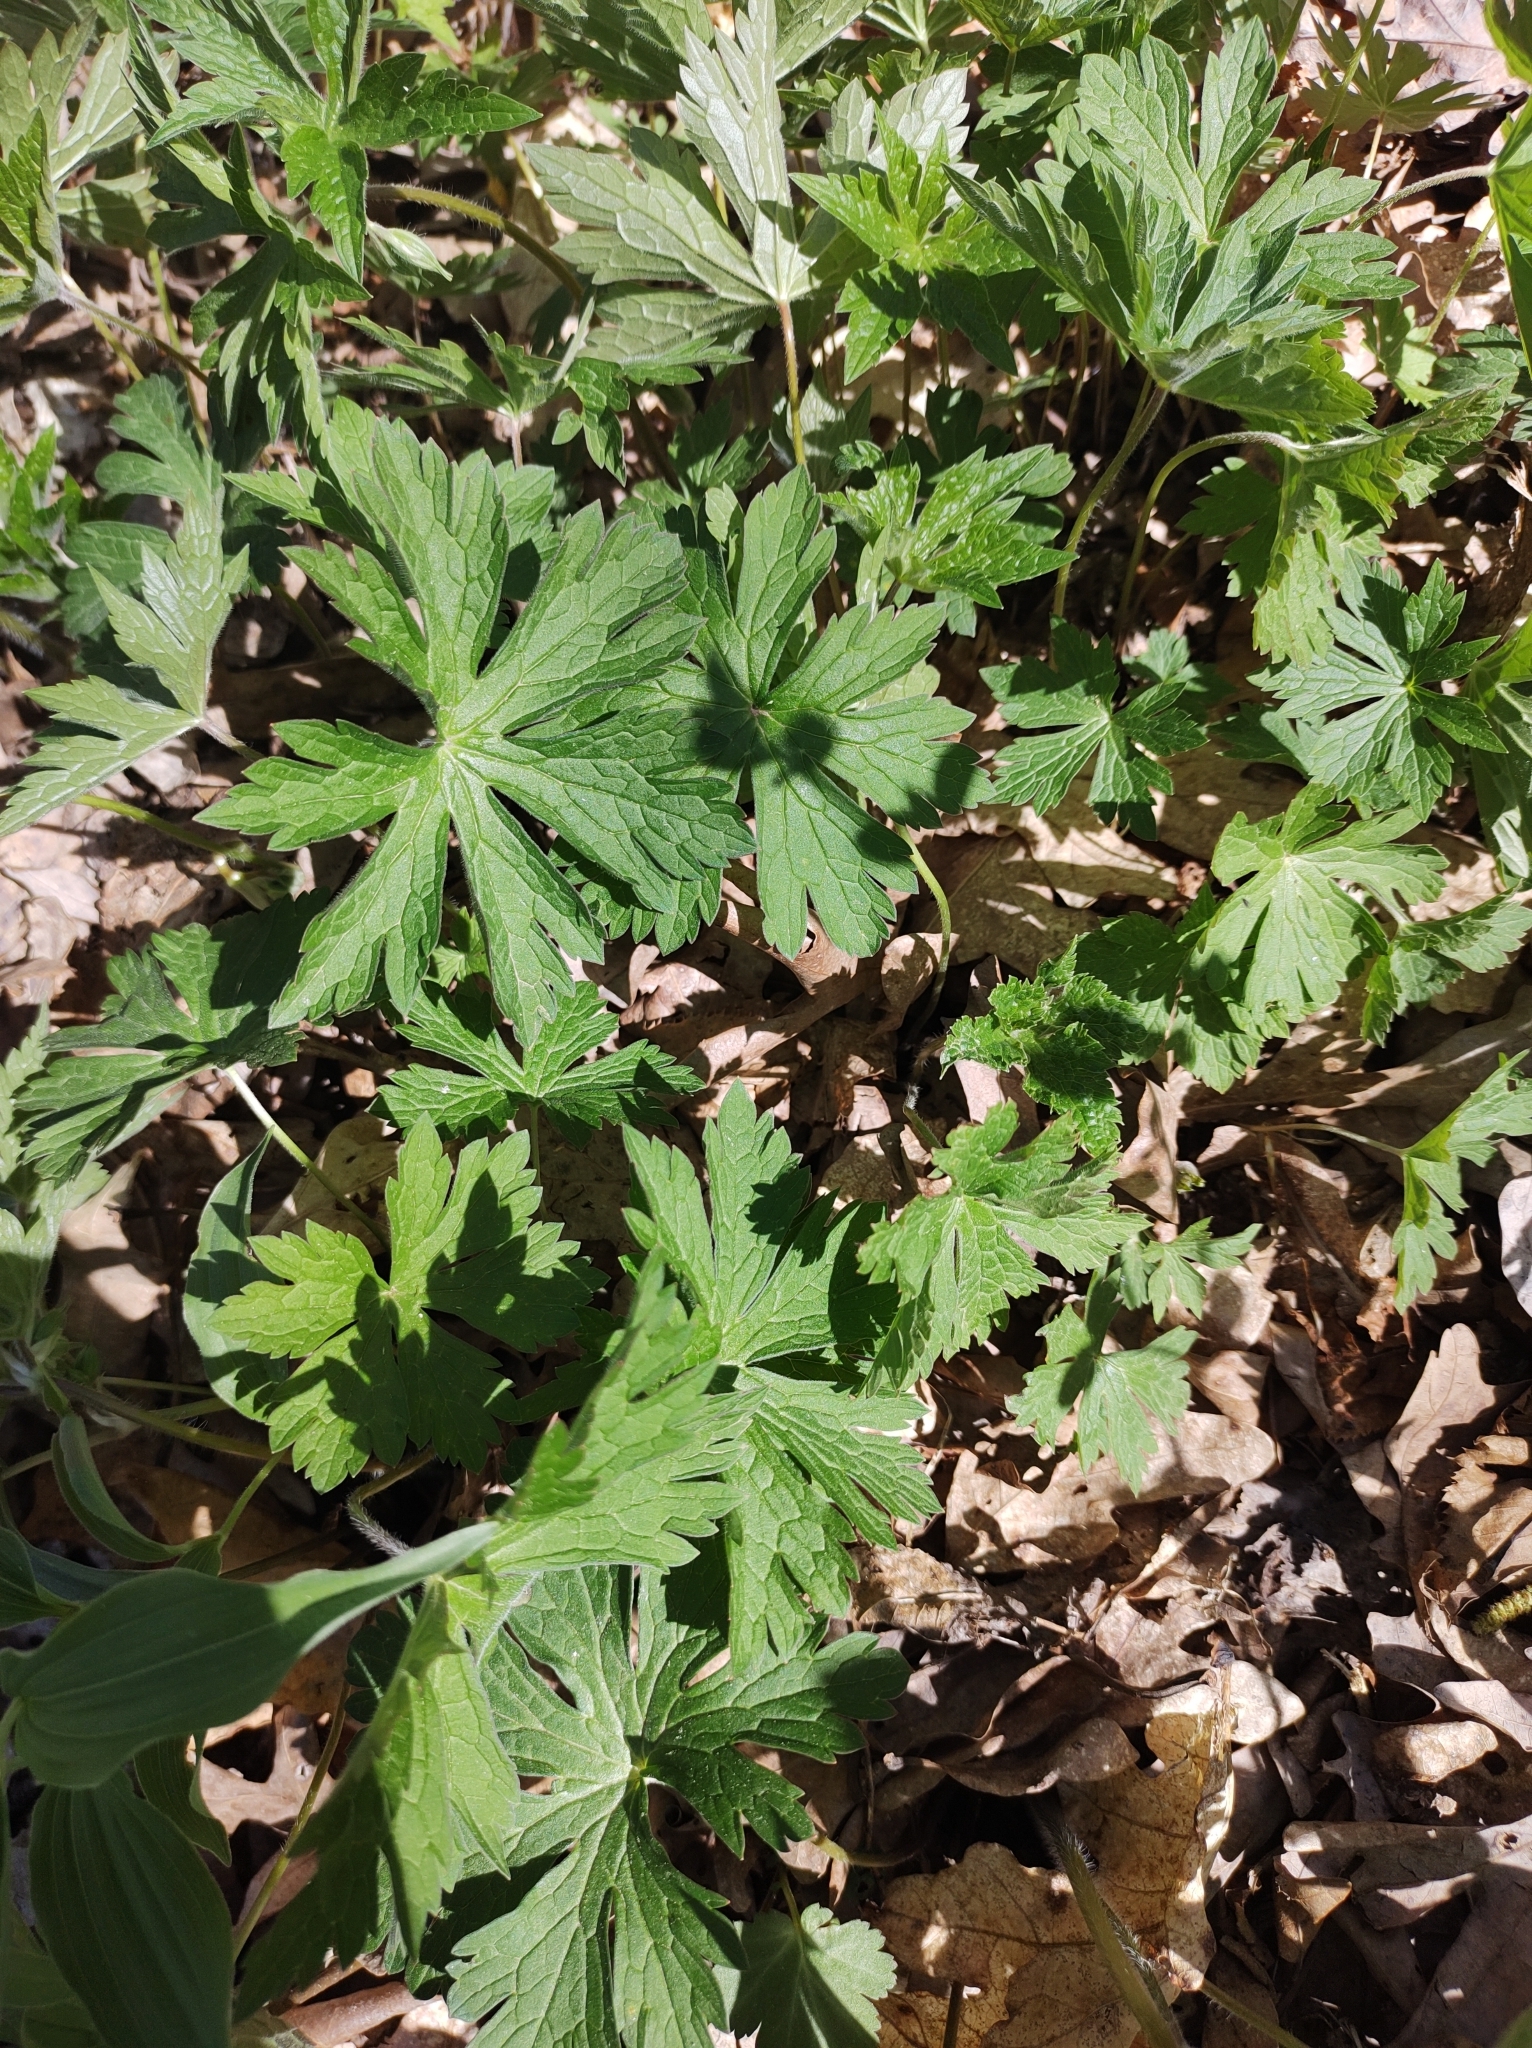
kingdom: Plantae
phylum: Tracheophyta
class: Magnoliopsida
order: Geraniales
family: Geraniaceae
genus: Geranium
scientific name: Geranium maculatum
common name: Spotted geranium
